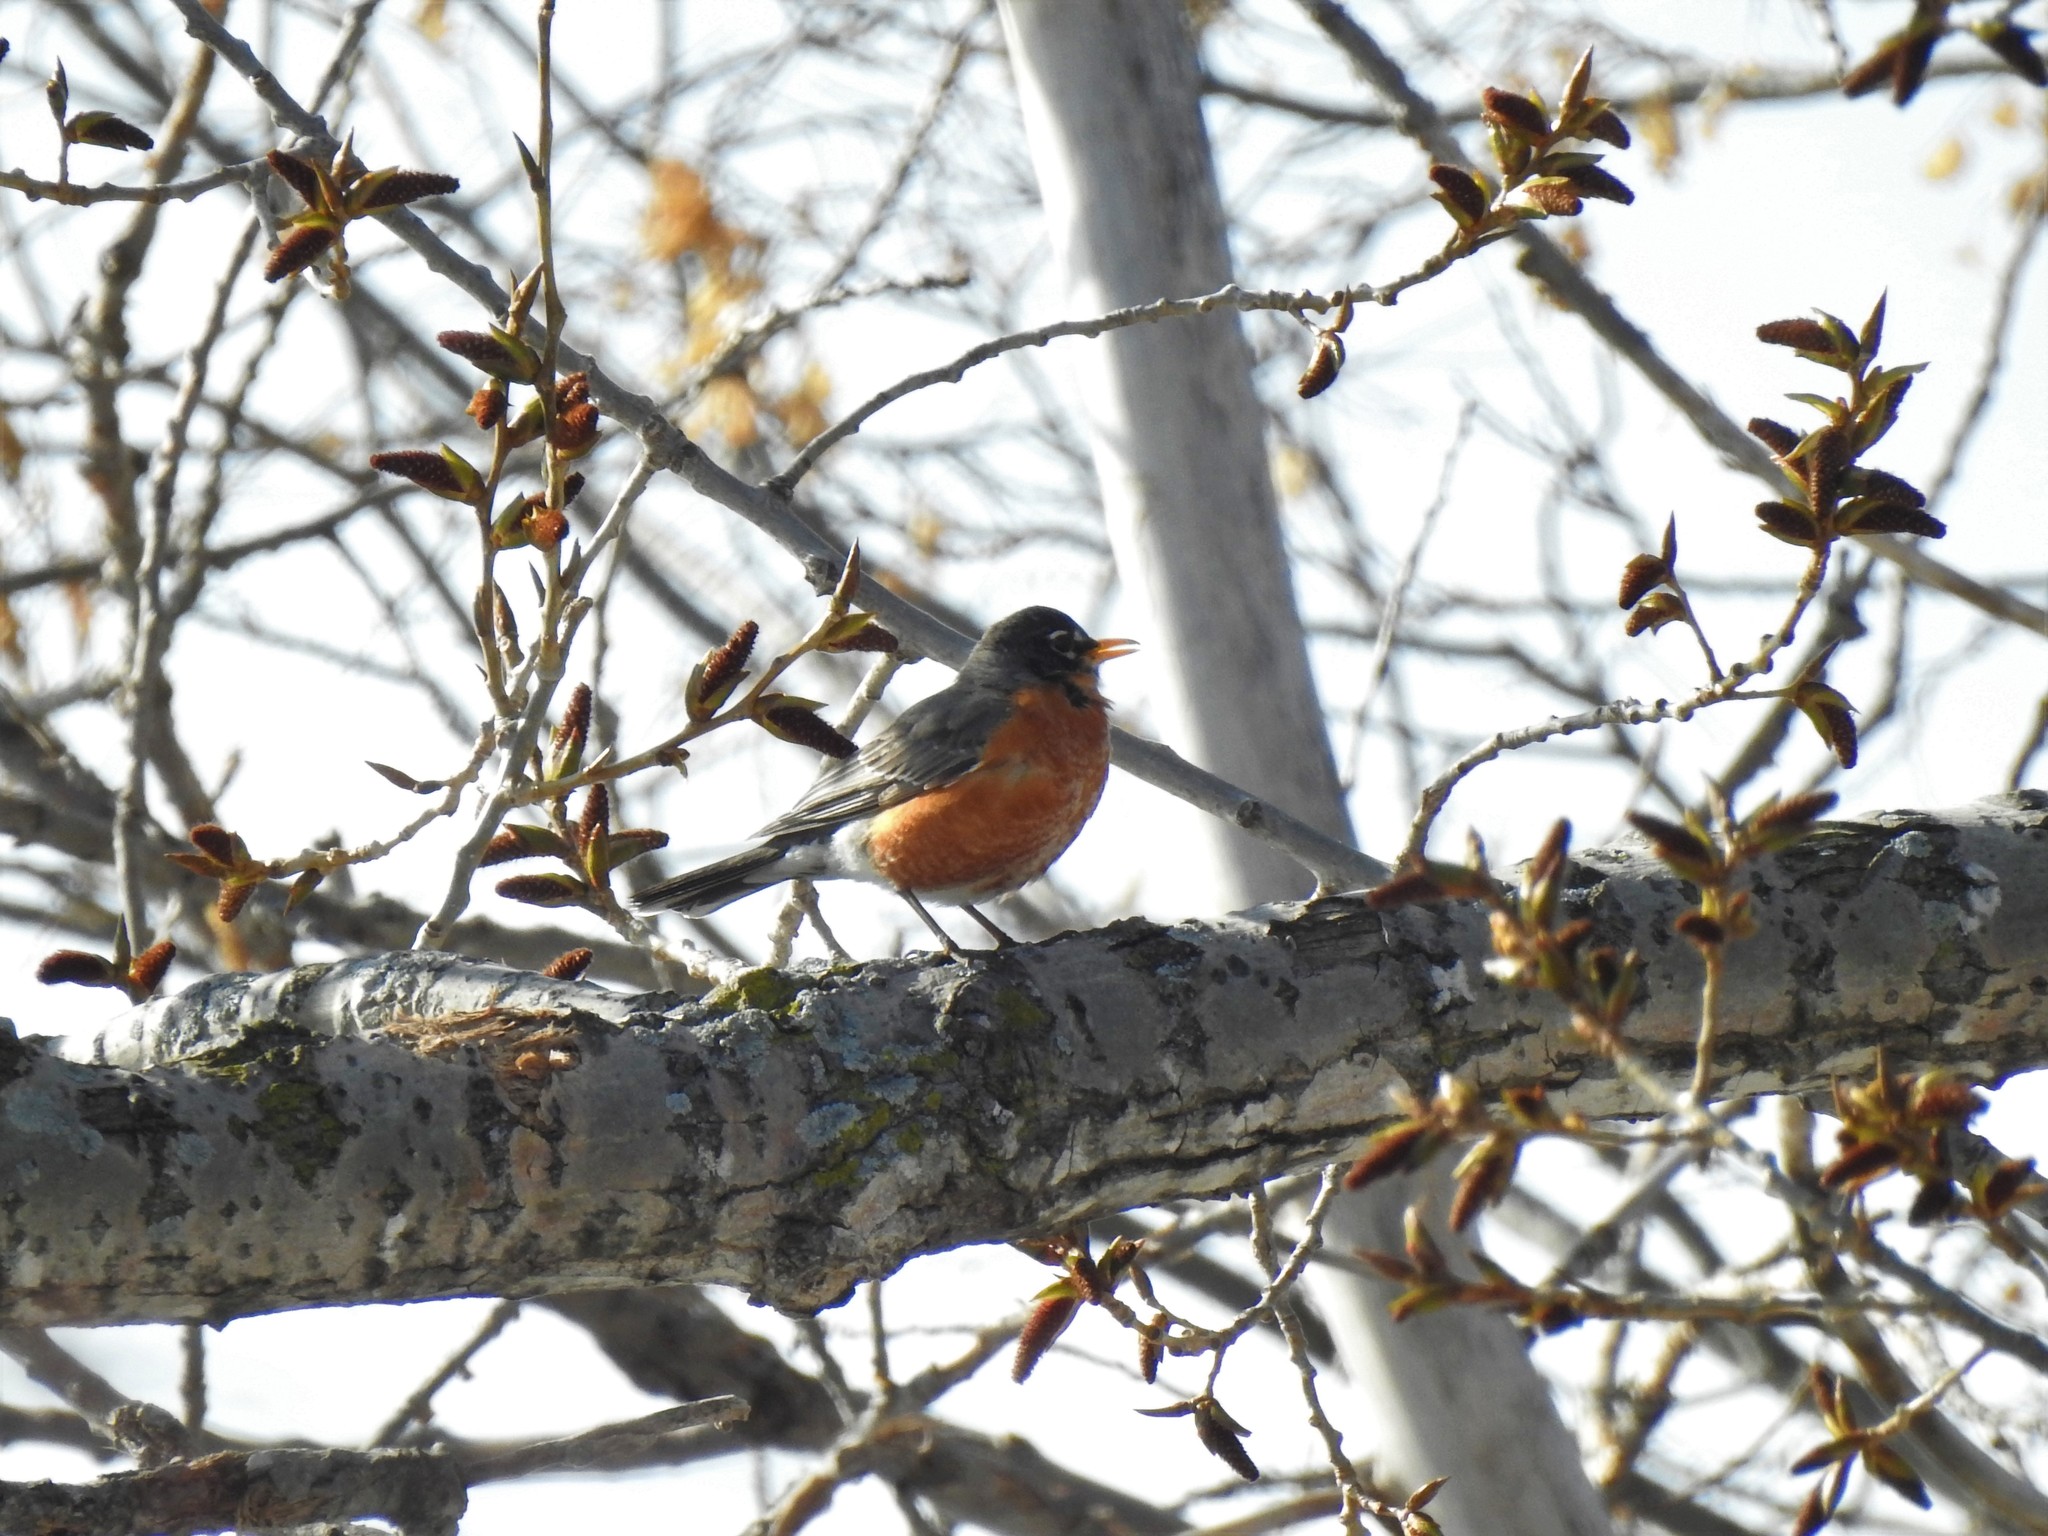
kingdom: Animalia
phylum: Chordata
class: Aves
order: Passeriformes
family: Turdidae
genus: Turdus
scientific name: Turdus migratorius
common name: American robin
